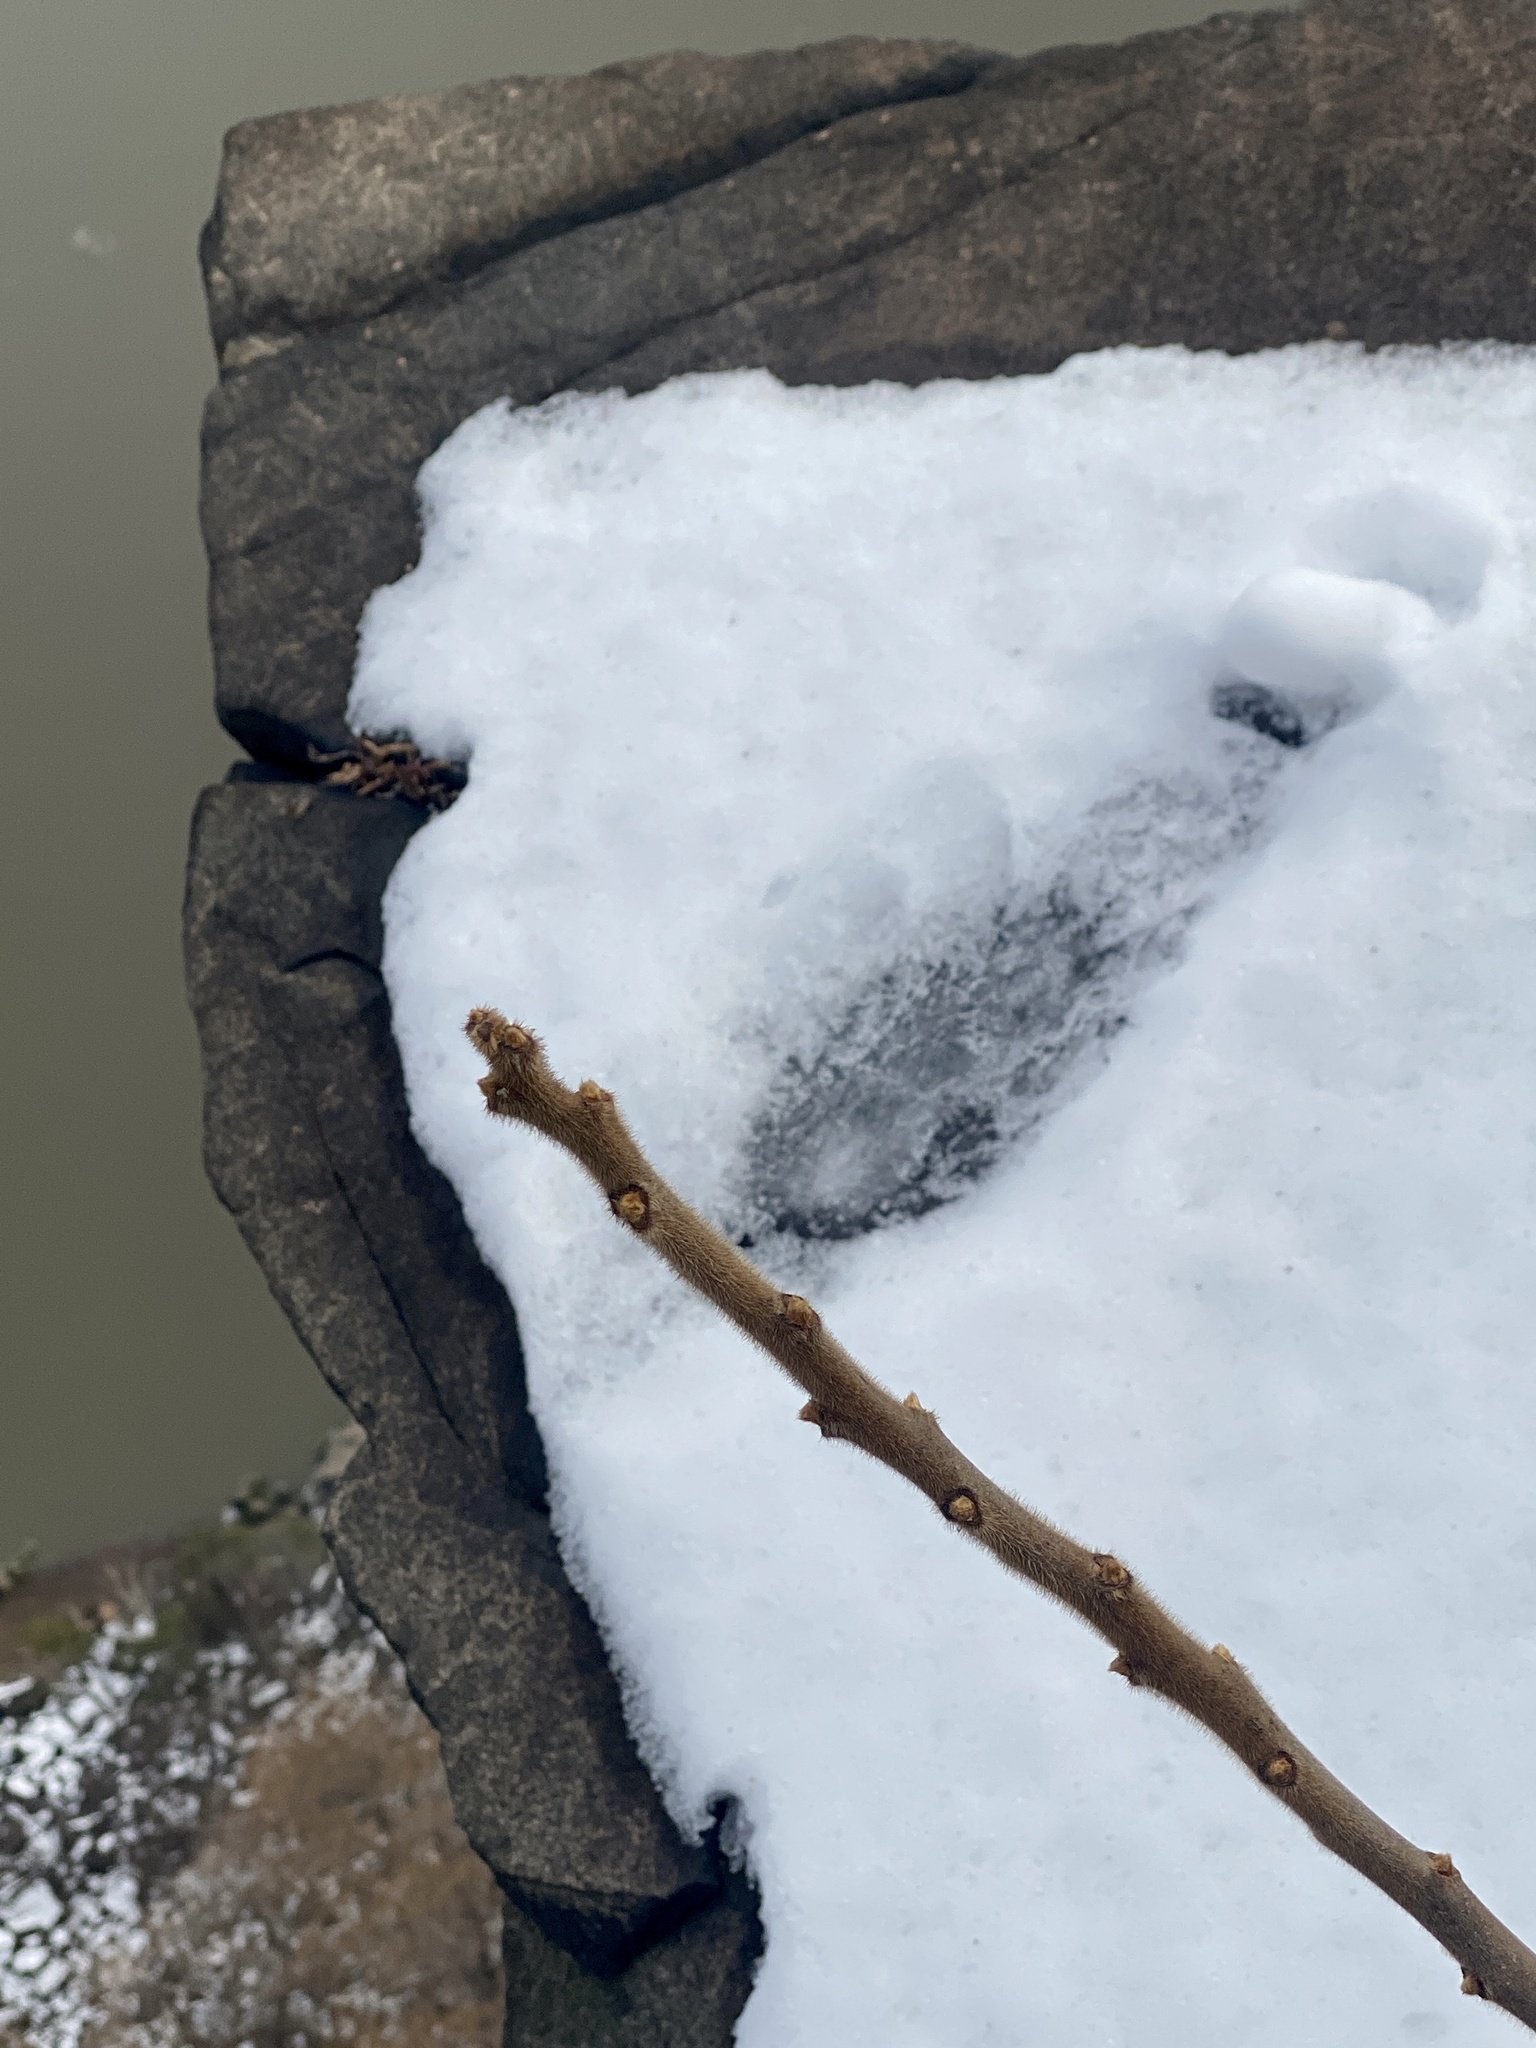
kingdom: Plantae
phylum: Tracheophyta
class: Magnoliopsida
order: Sapindales
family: Anacardiaceae
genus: Rhus
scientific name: Rhus typhina
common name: Staghorn sumac
